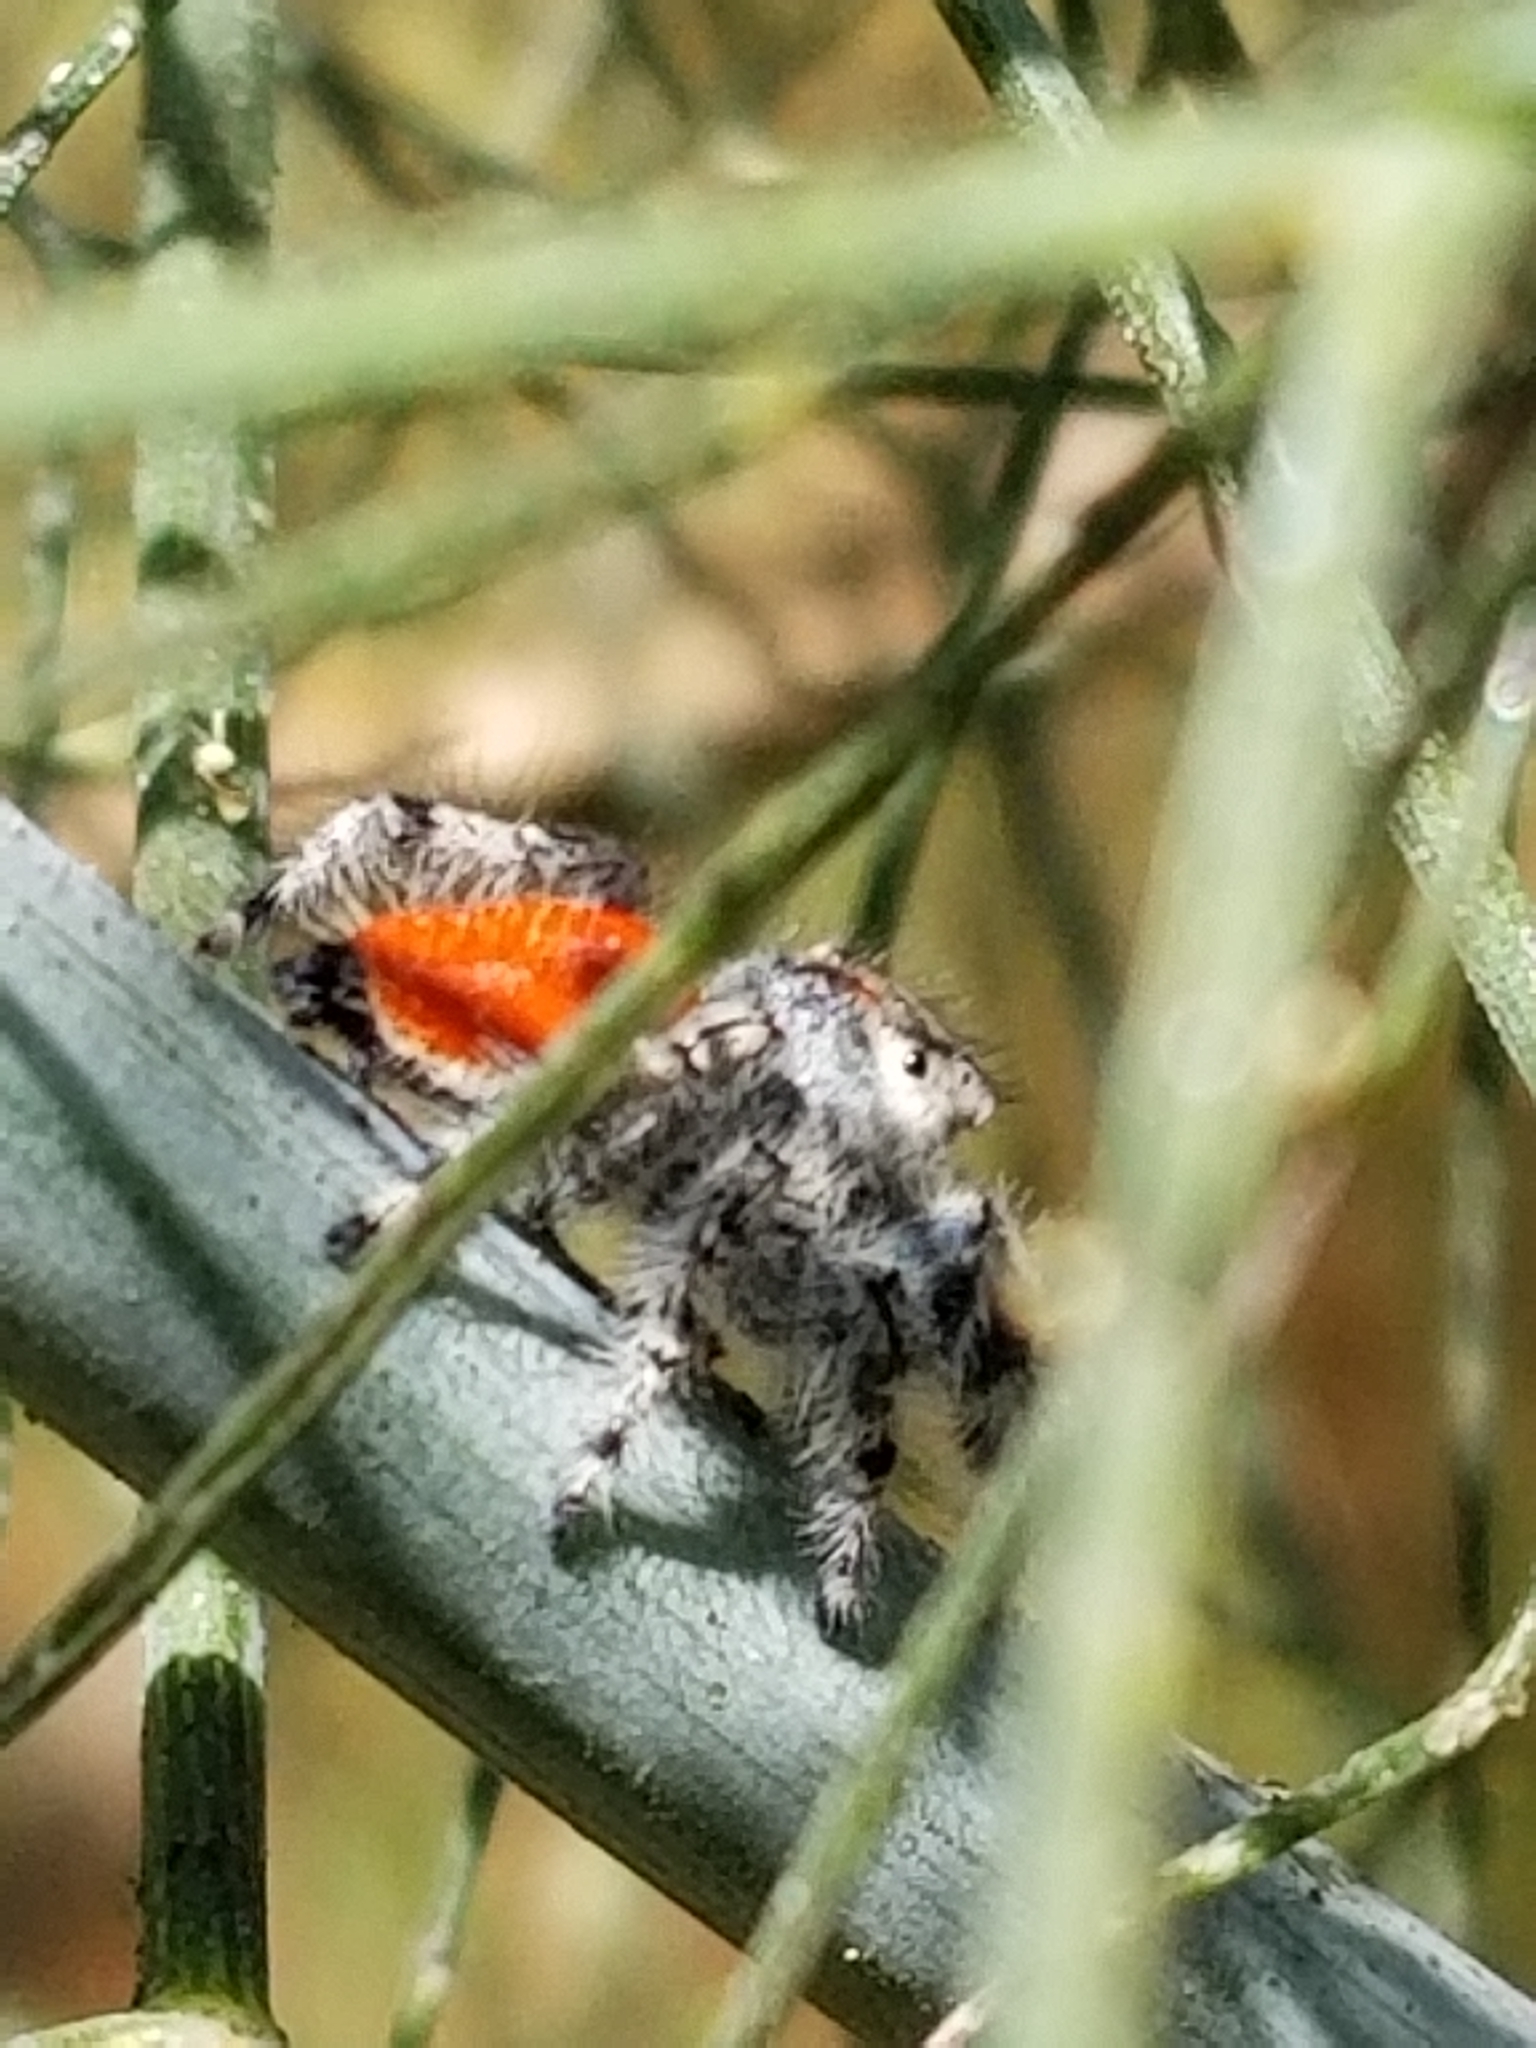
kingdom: Animalia
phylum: Arthropoda
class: Arachnida
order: Araneae
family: Salticidae
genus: Phidippus
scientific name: Phidippus adumbratus
